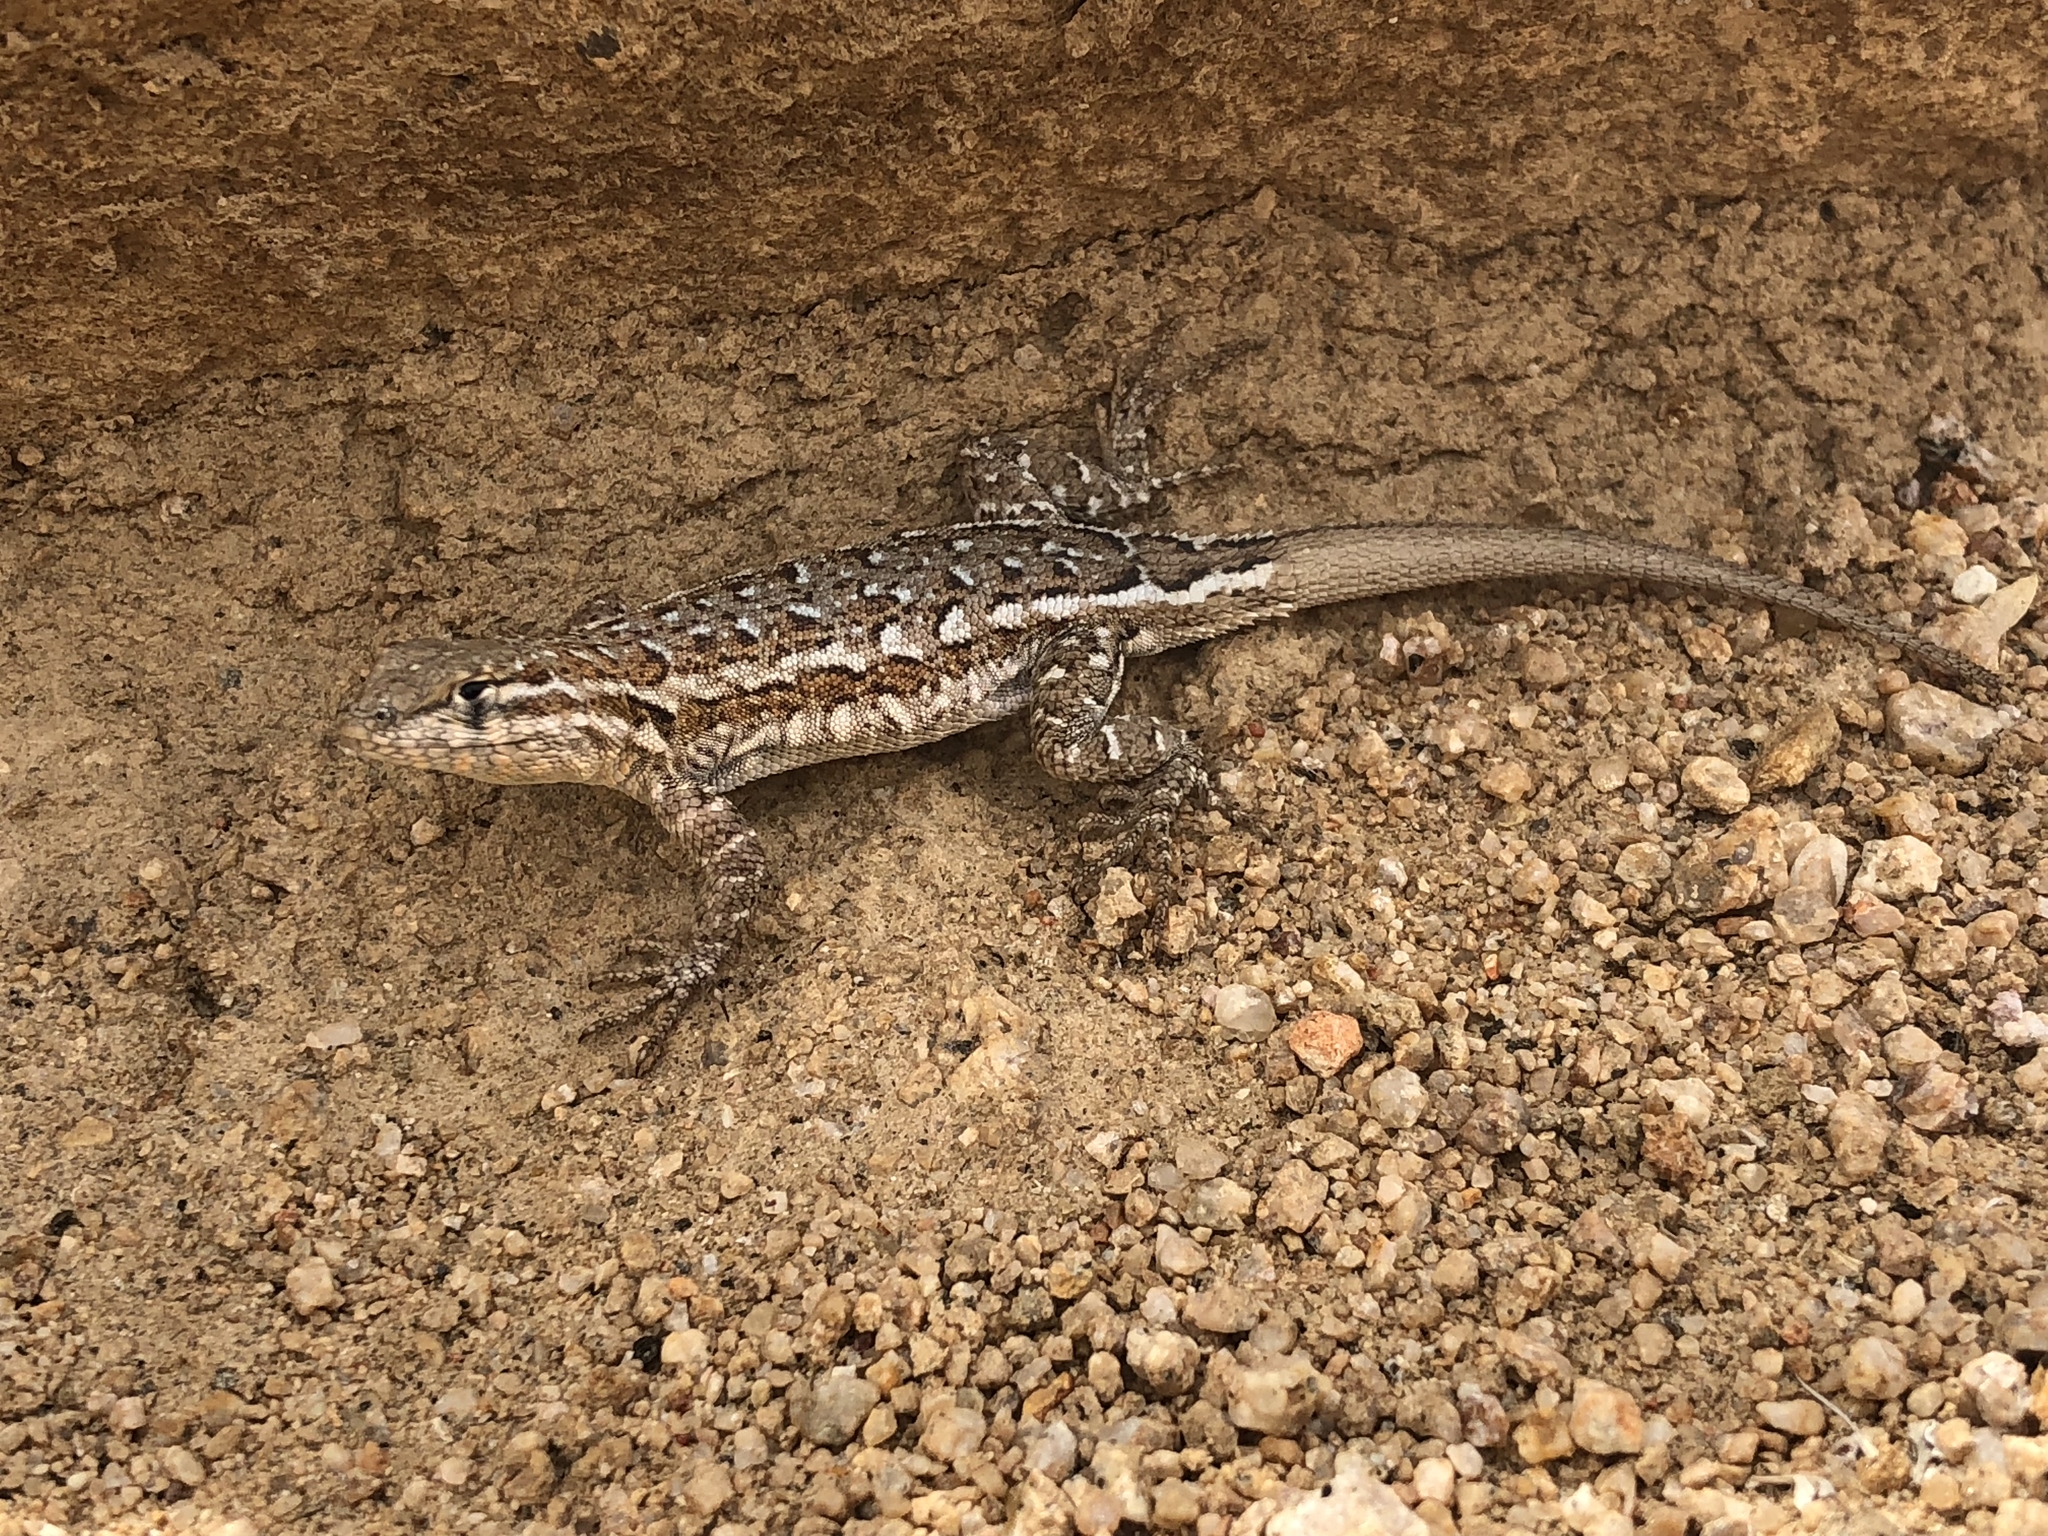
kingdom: Animalia
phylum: Chordata
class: Squamata
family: Phrynosomatidae
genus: Uta
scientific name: Uta stansburiana
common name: Side-blotched lizard
